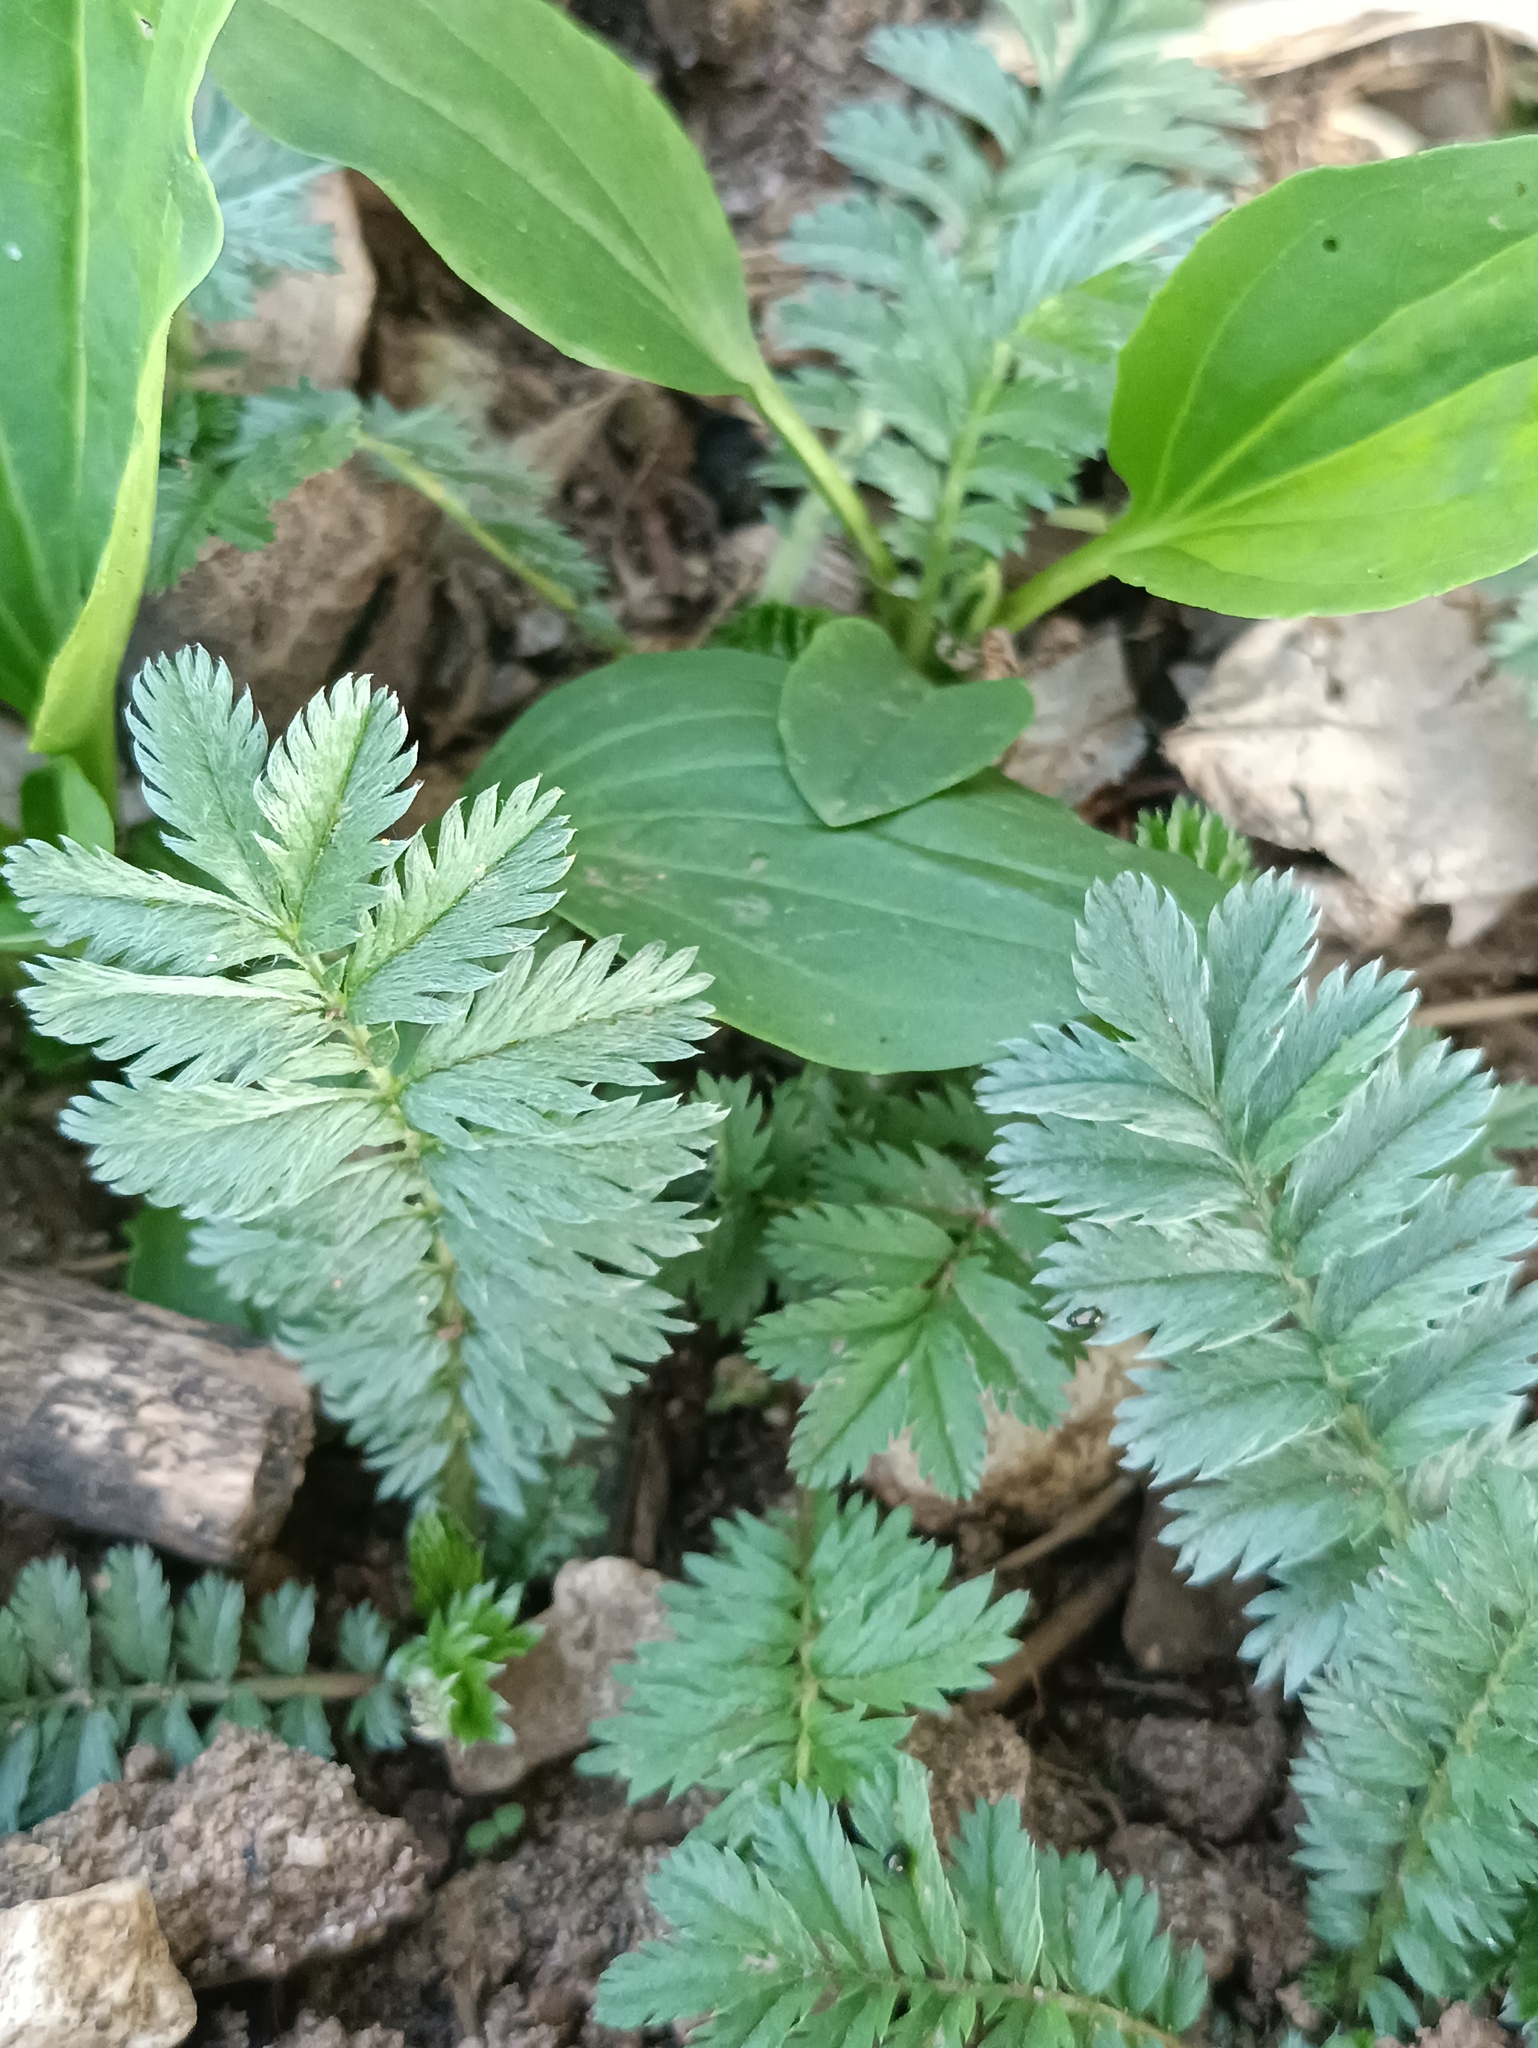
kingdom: Plantae
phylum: Tracheophyta
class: Magnoliopsida
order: Rosales
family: Rosaceae
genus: Argentina
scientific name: Argentina anserina
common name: Common silverweed
